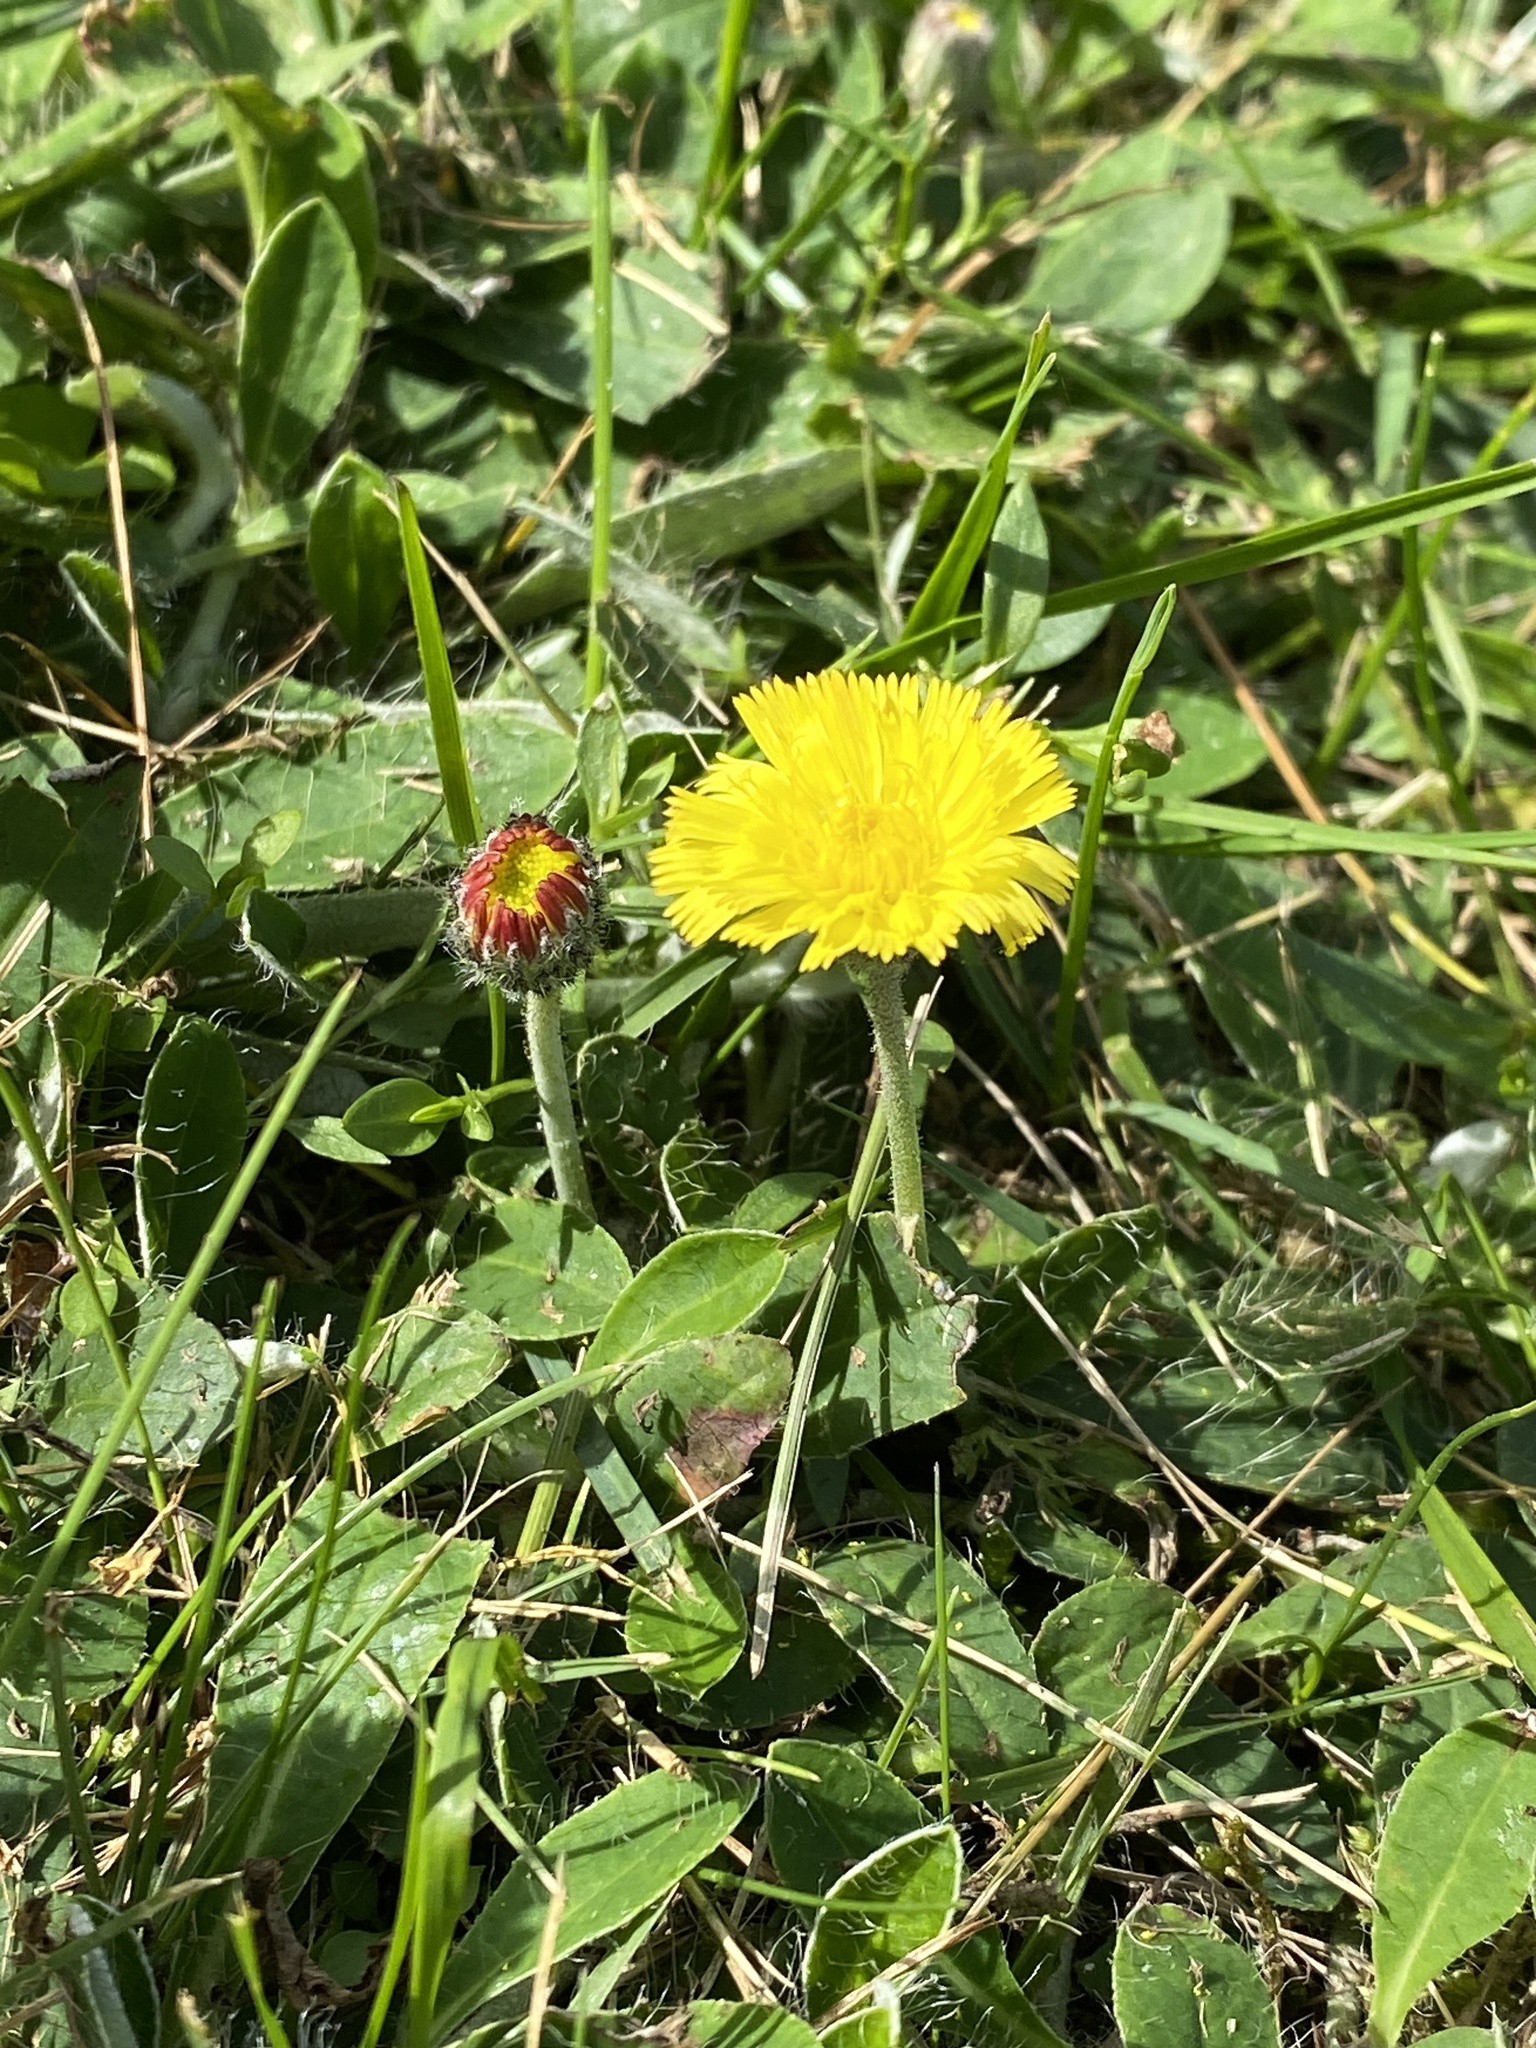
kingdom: Plantae
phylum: Tracheophyta
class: Magnoliopsida
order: Asterales
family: Asteraceae
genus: Pilosella
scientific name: Pilosella officinarum
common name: Mouse-ear hawkweed
